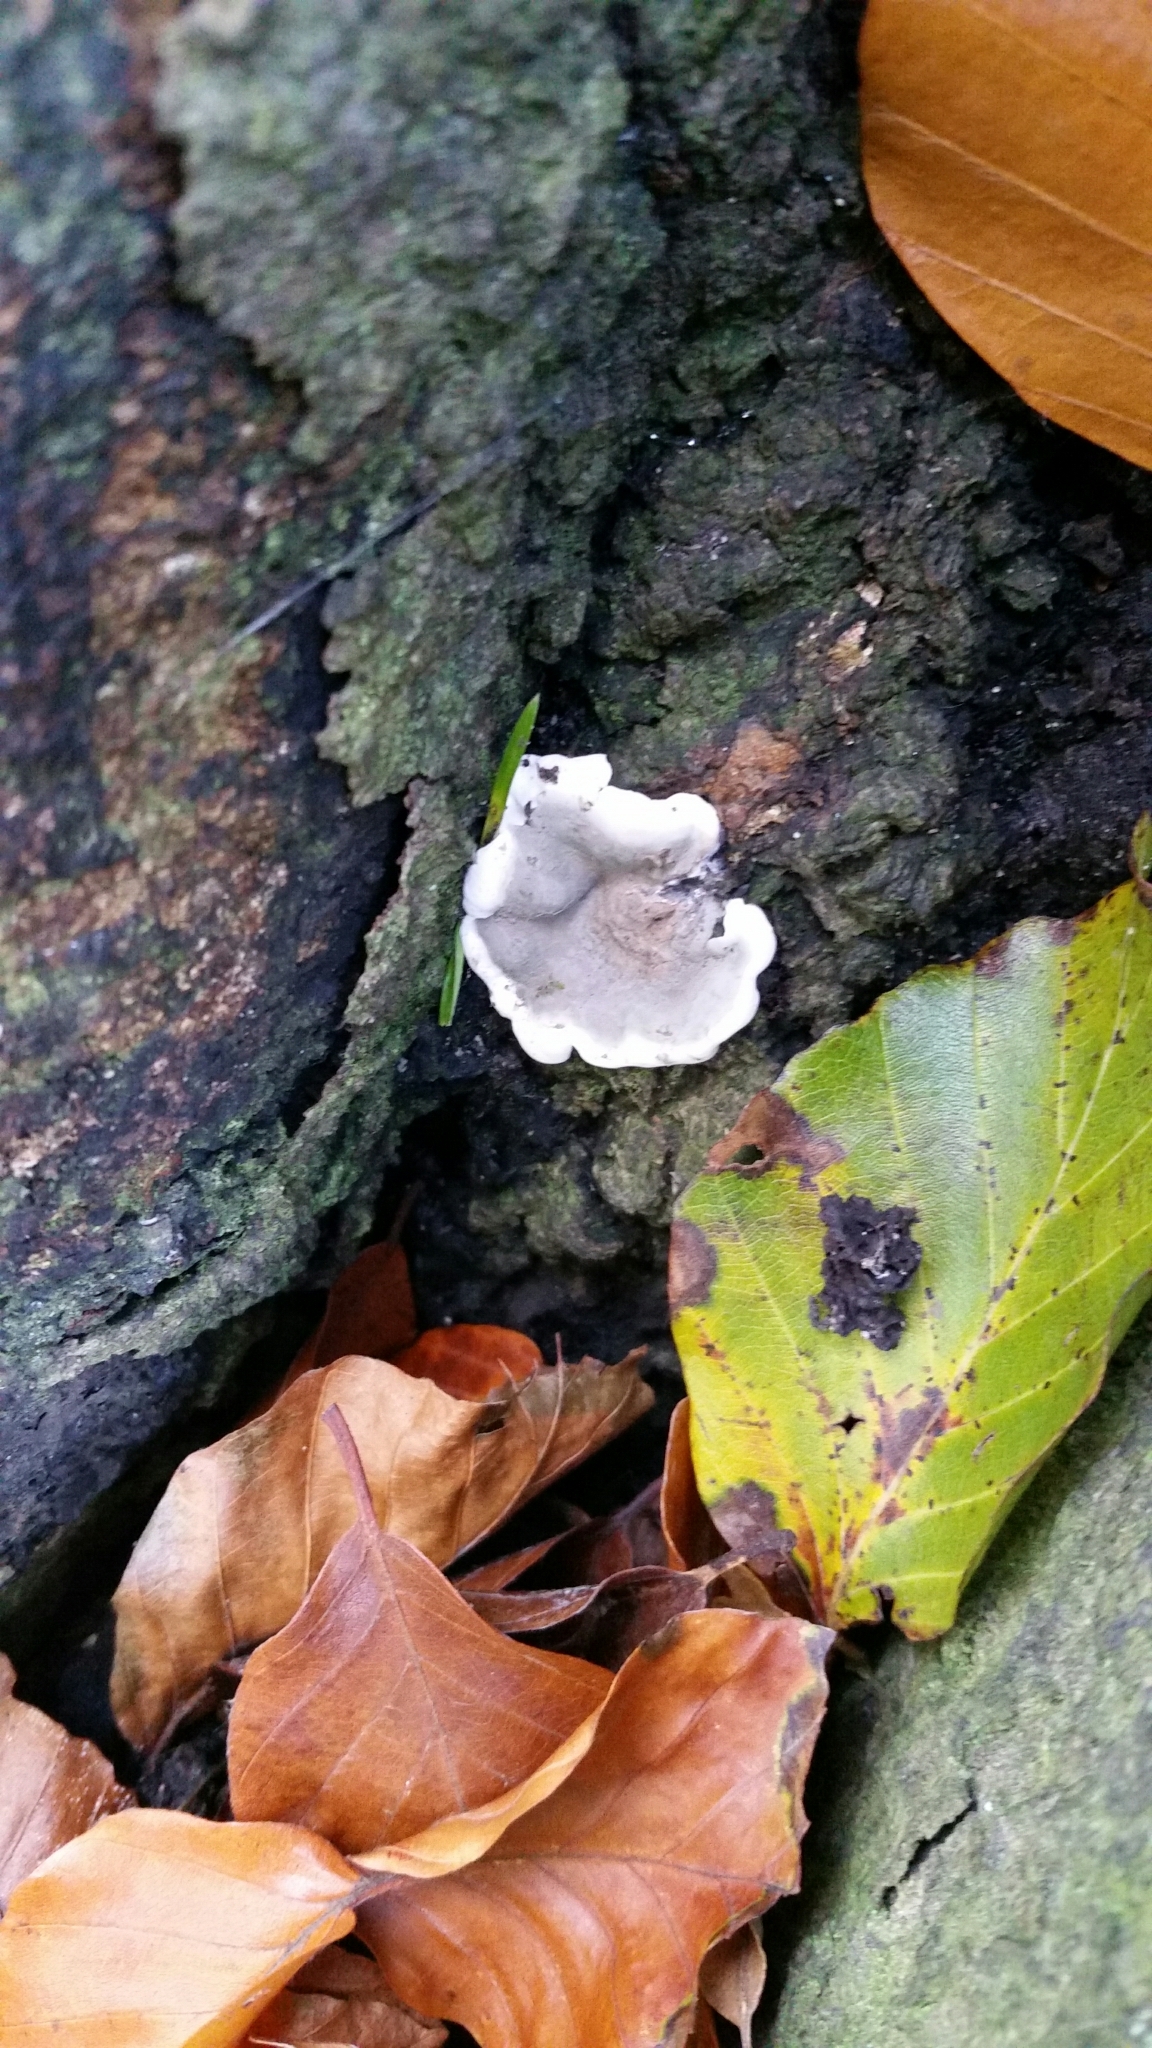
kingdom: Fungi
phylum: Basidiomycota
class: Agaricomycetes
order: Polyporales
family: Phanerochaetaceae
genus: Bjerkandera
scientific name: Bjerkandera adusta
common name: Smoky bracket
